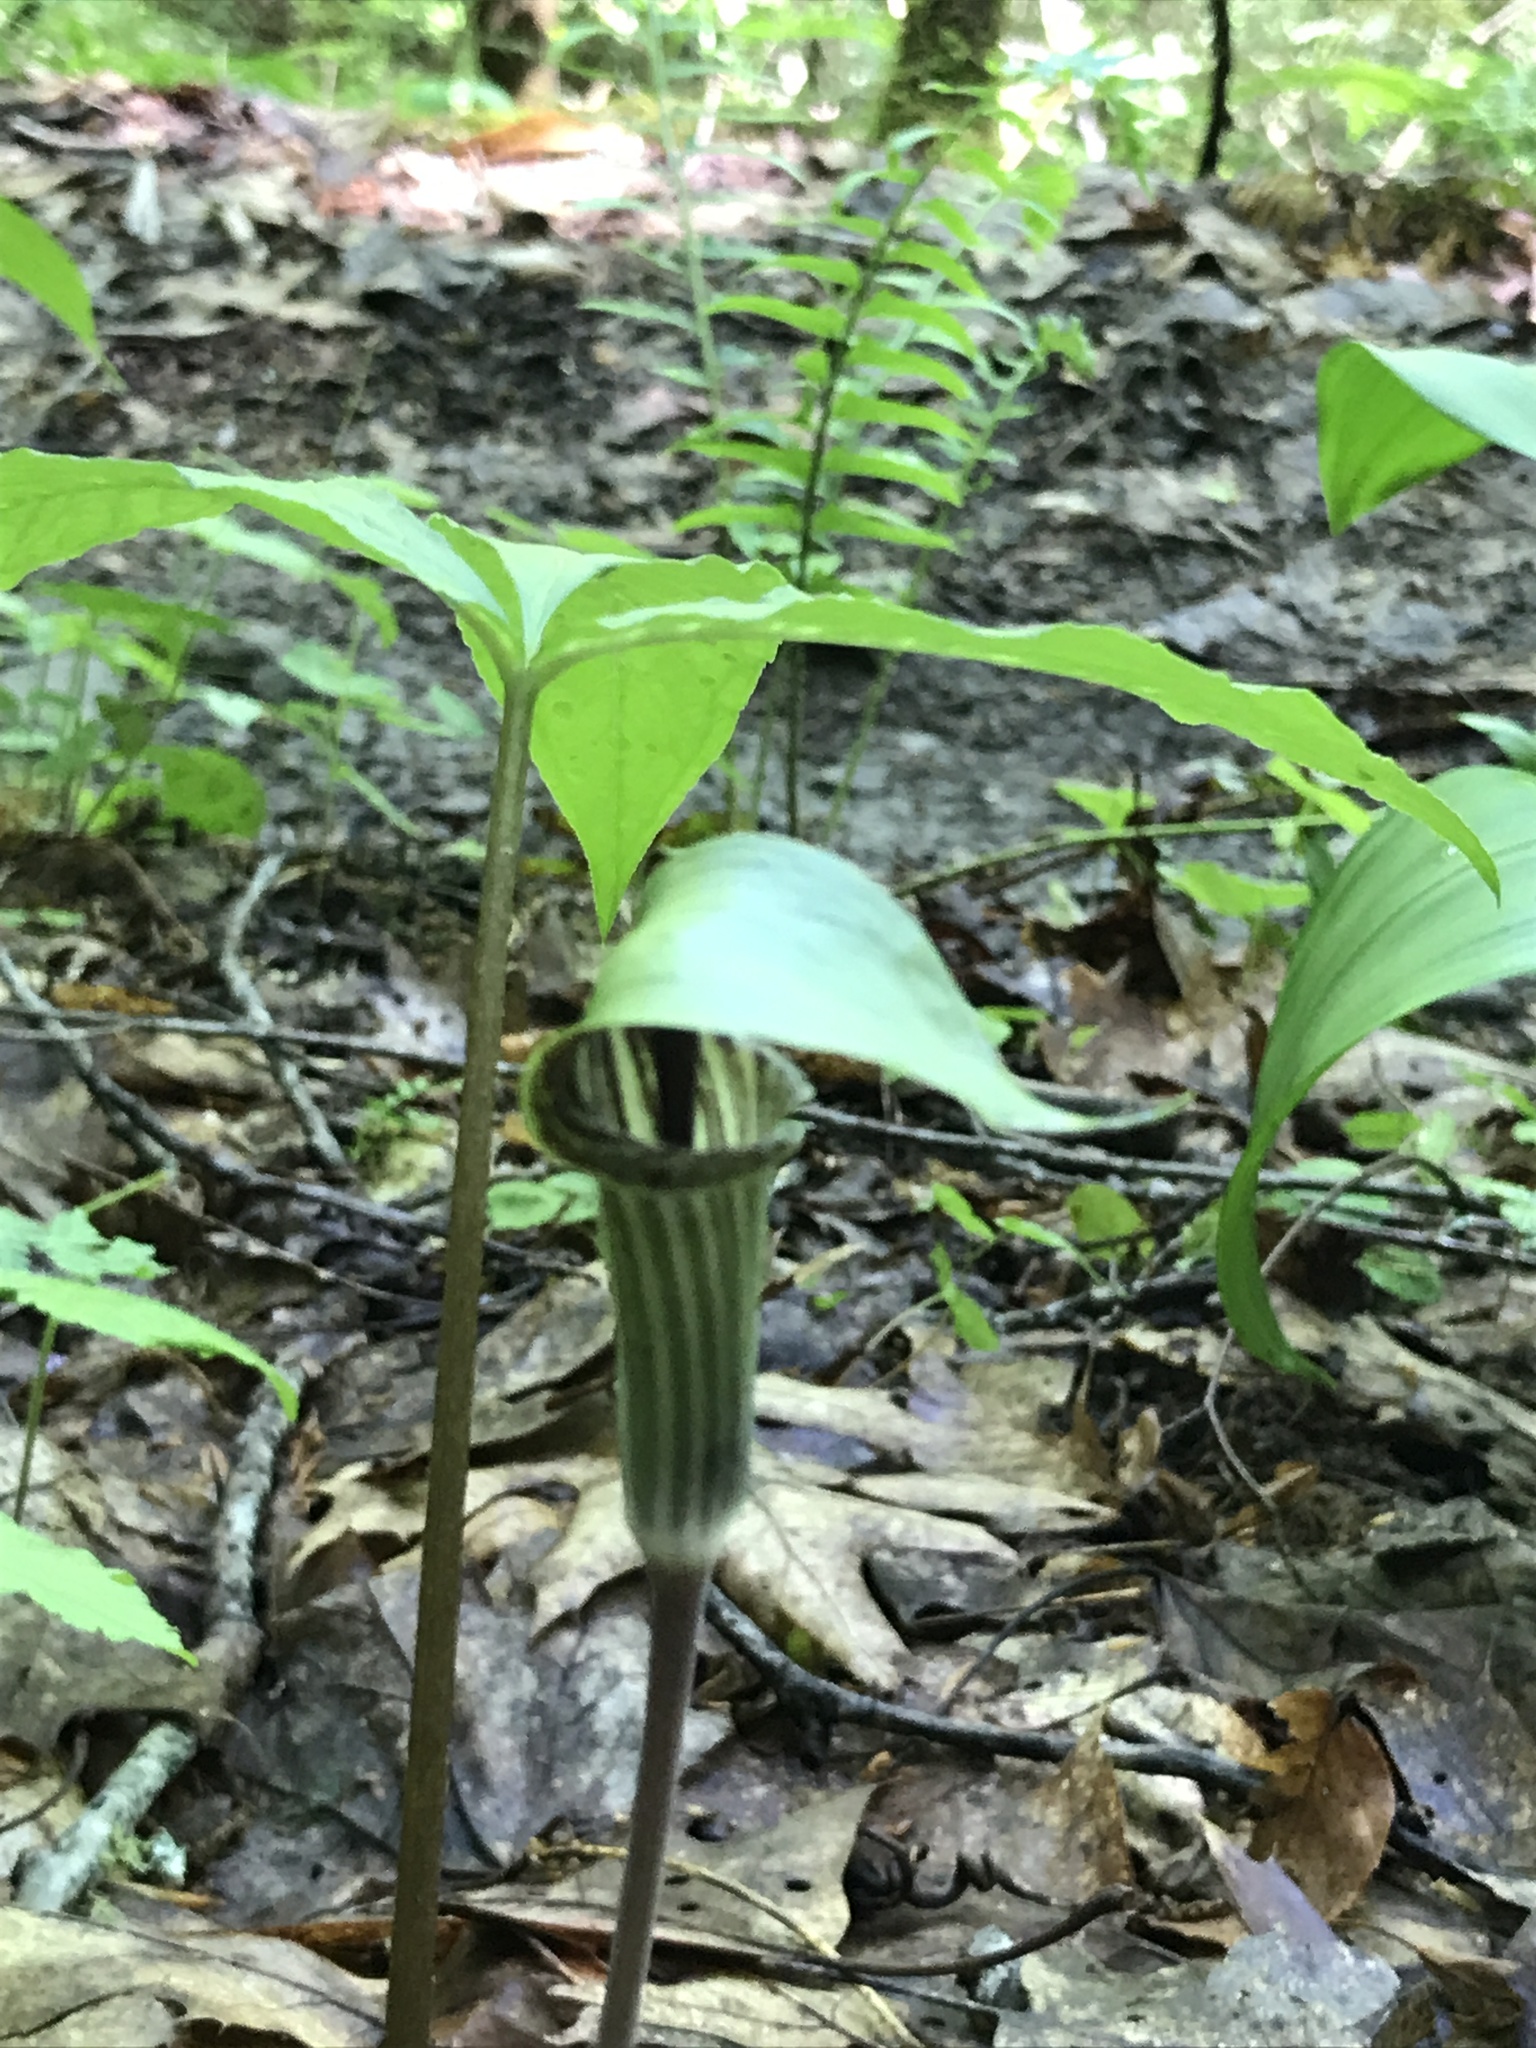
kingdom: Plantae
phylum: Tracheophyta
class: Liliopsida
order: Alismatales
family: Araceae
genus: Arisaema
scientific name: Arisaema triphyllum
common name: Jack-in-the-pulpit
